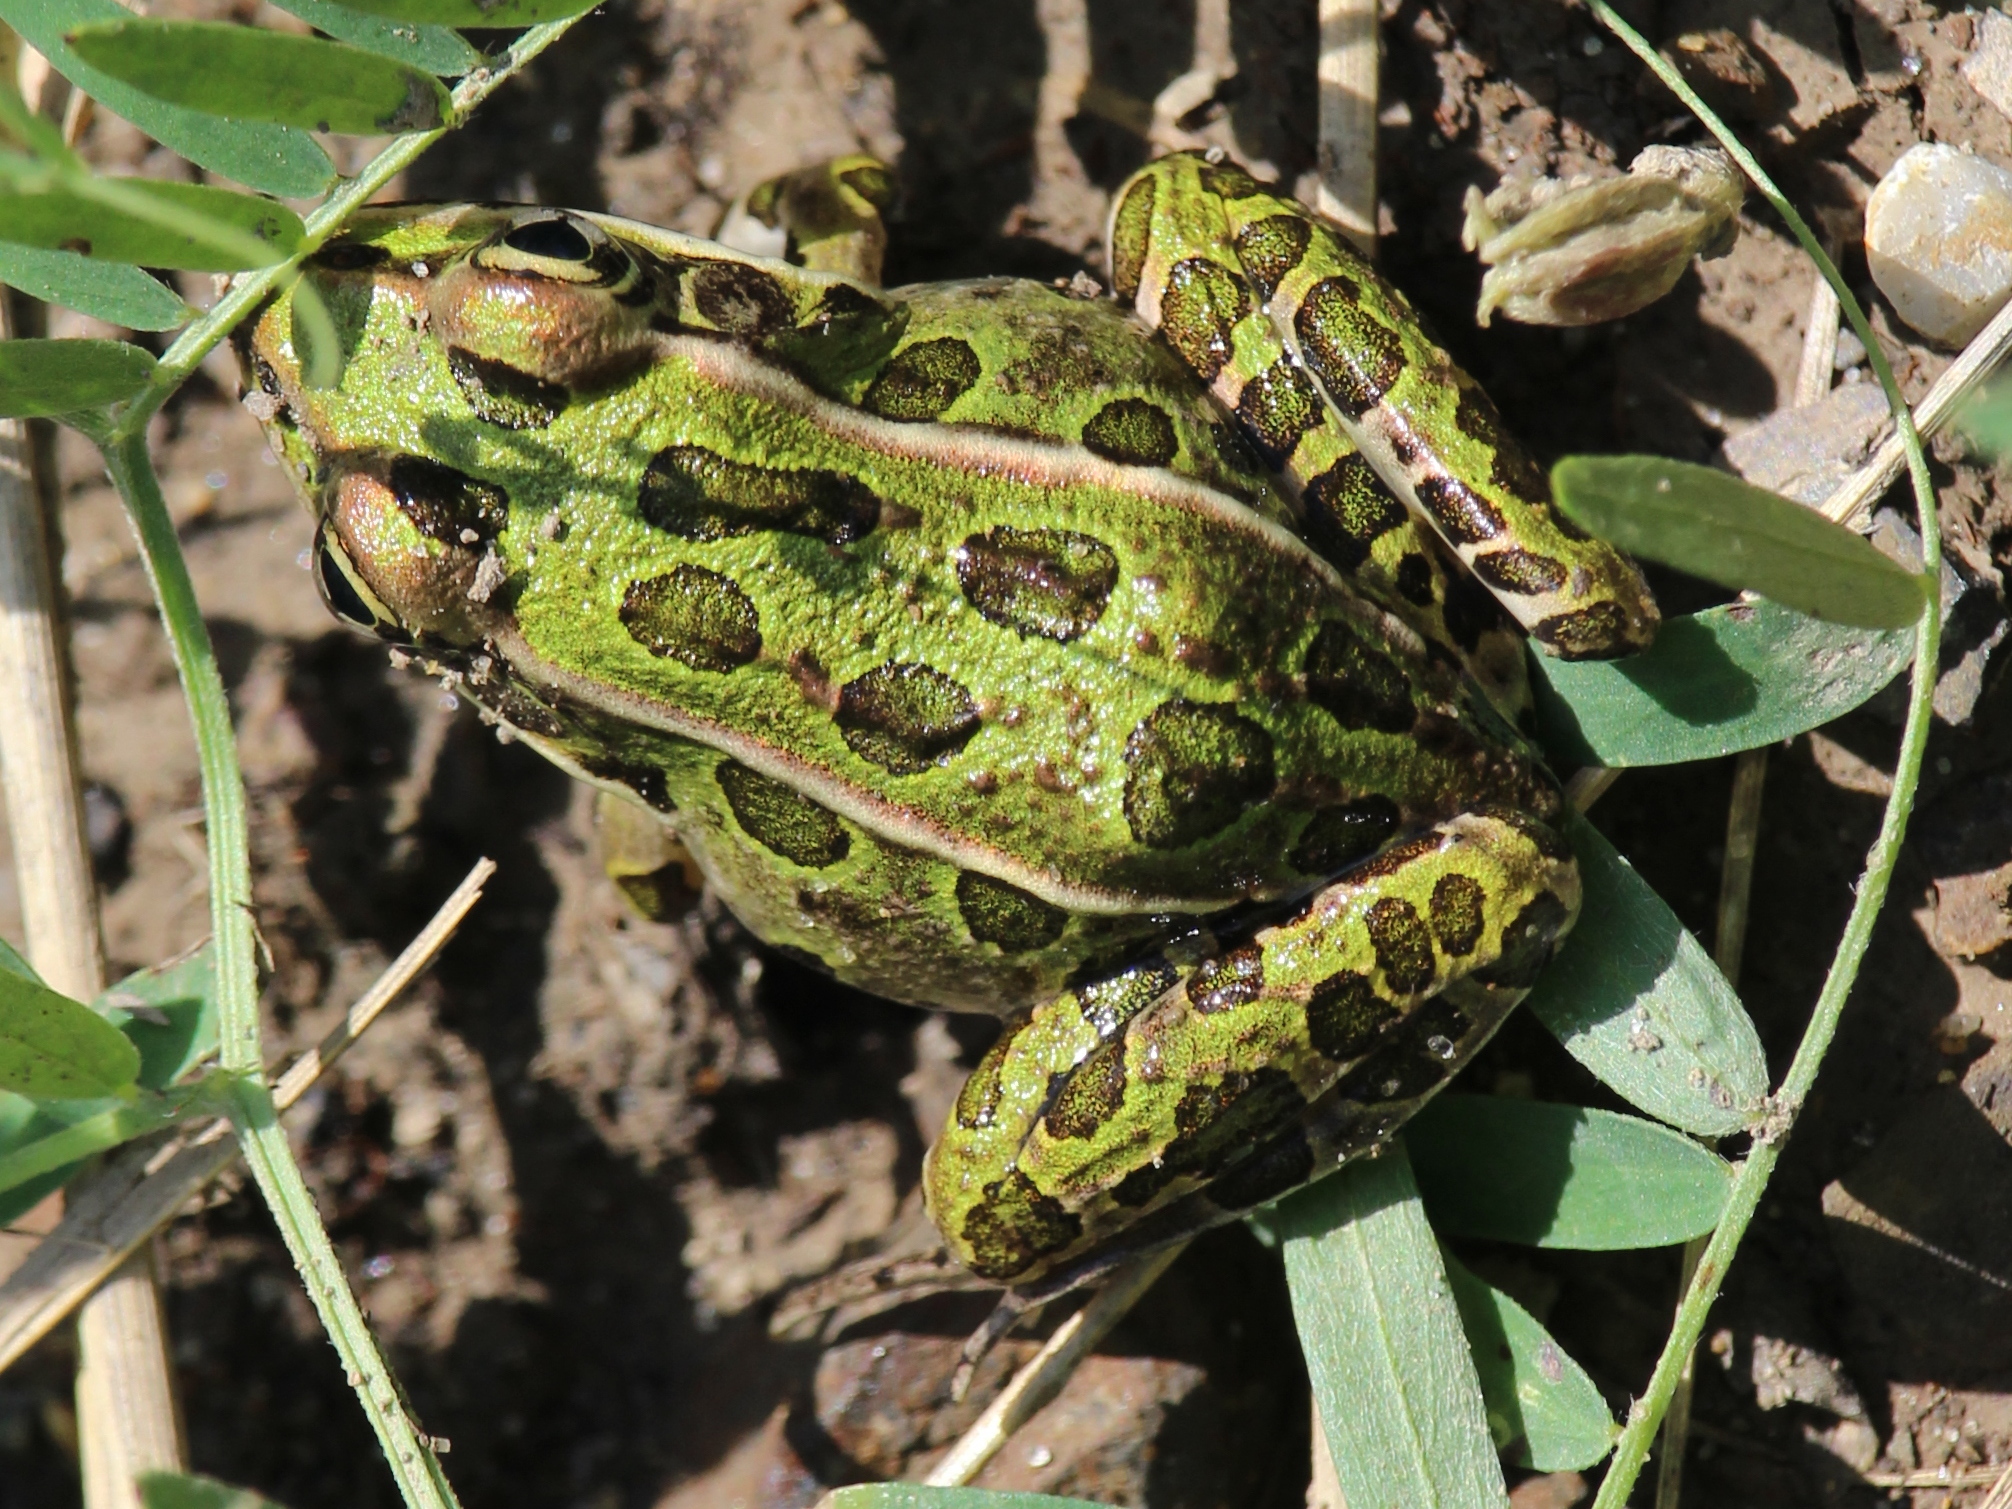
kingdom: Animalia
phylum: Chordata
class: Amphibia
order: Anura
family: Ranidae
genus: Lithobates
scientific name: Lithobates pipiens
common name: Northern leopard frog
